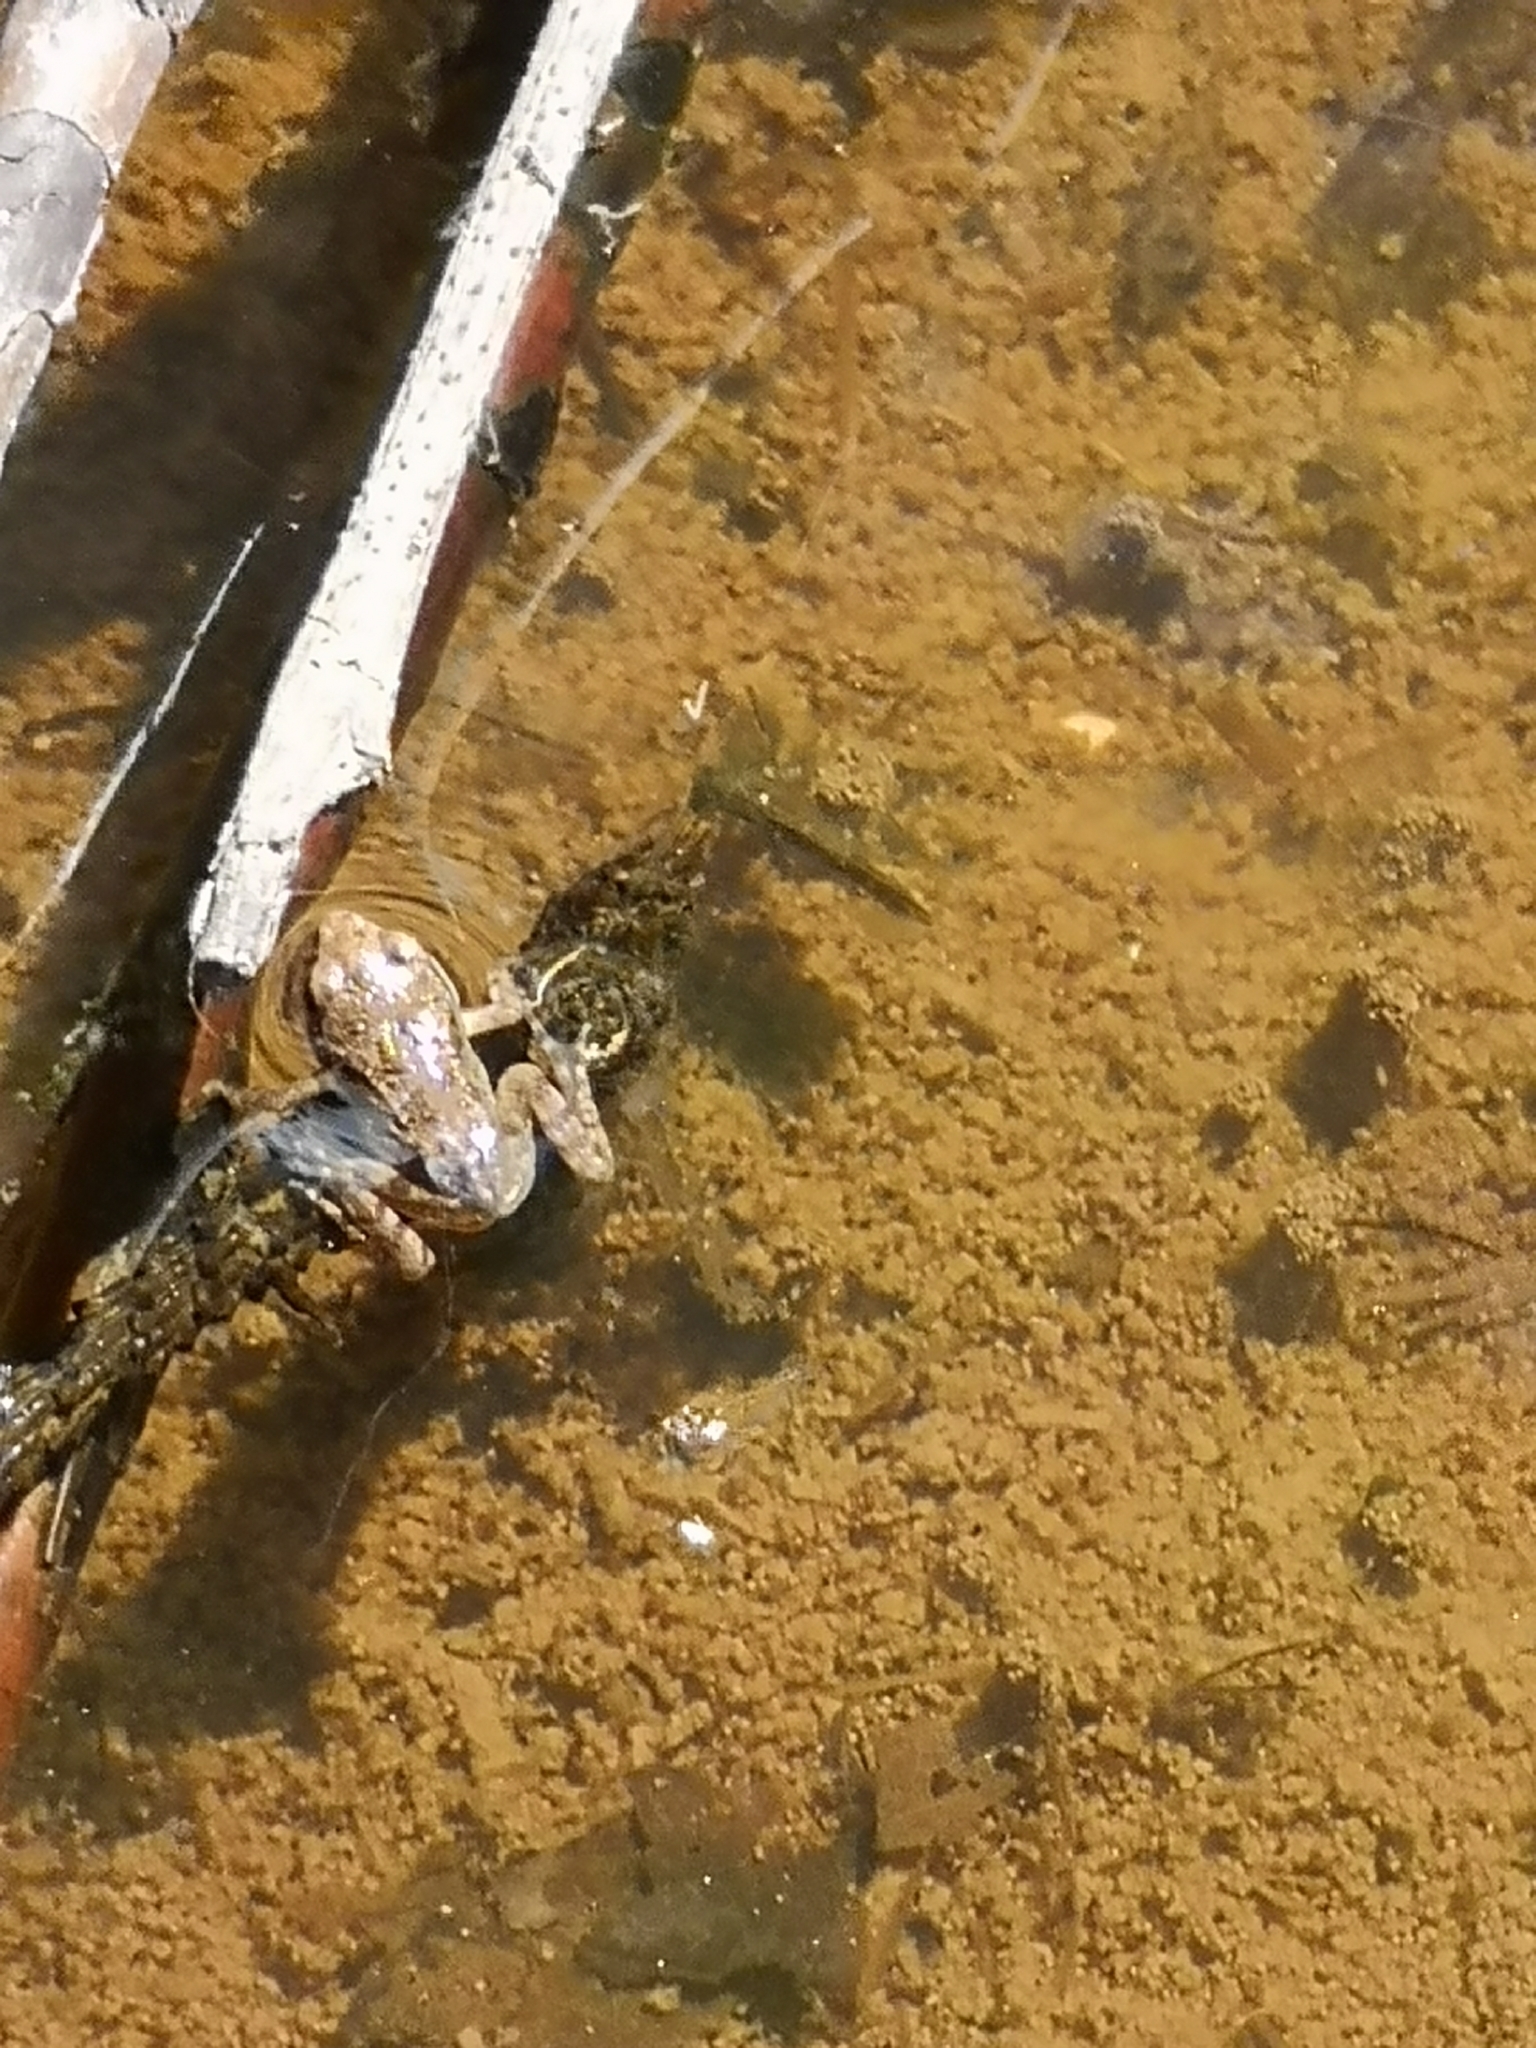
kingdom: Animalia
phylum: Chordata
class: Amphibia
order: Anura
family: Ranidae
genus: Rana
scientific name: Rana temporaria
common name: Common frog
